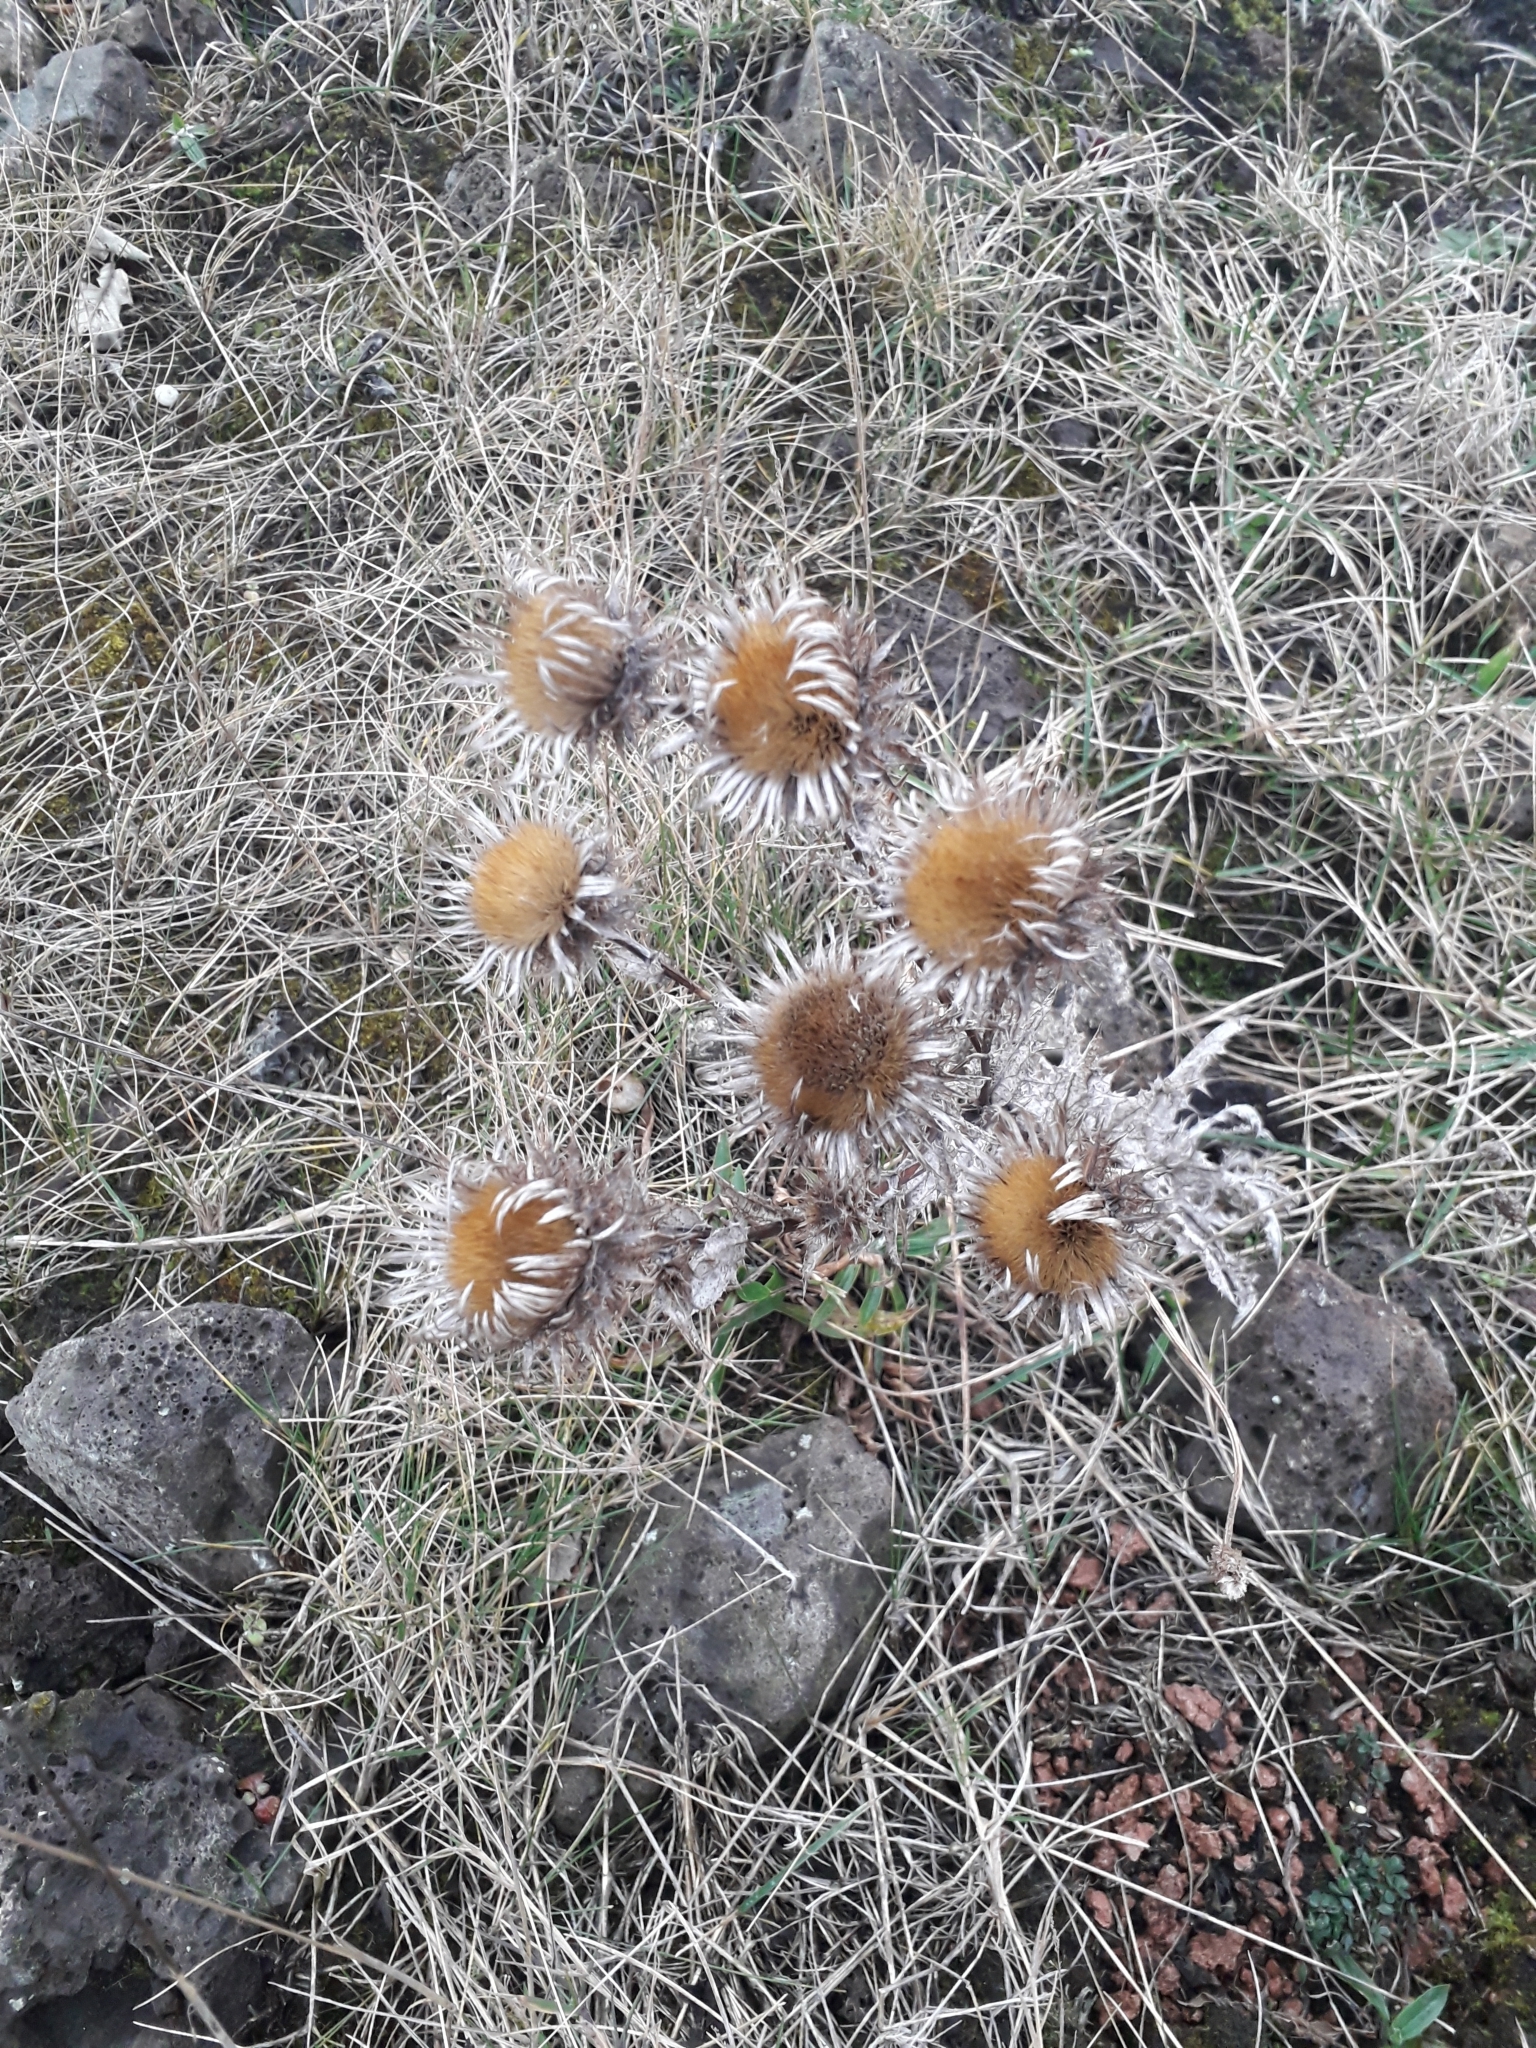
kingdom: Plantae
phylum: Tracheophyta
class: Magnoliopsida
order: Asterales
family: Asteraceae
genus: Carlina
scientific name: Carlina vulgaris
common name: Carline thistle
